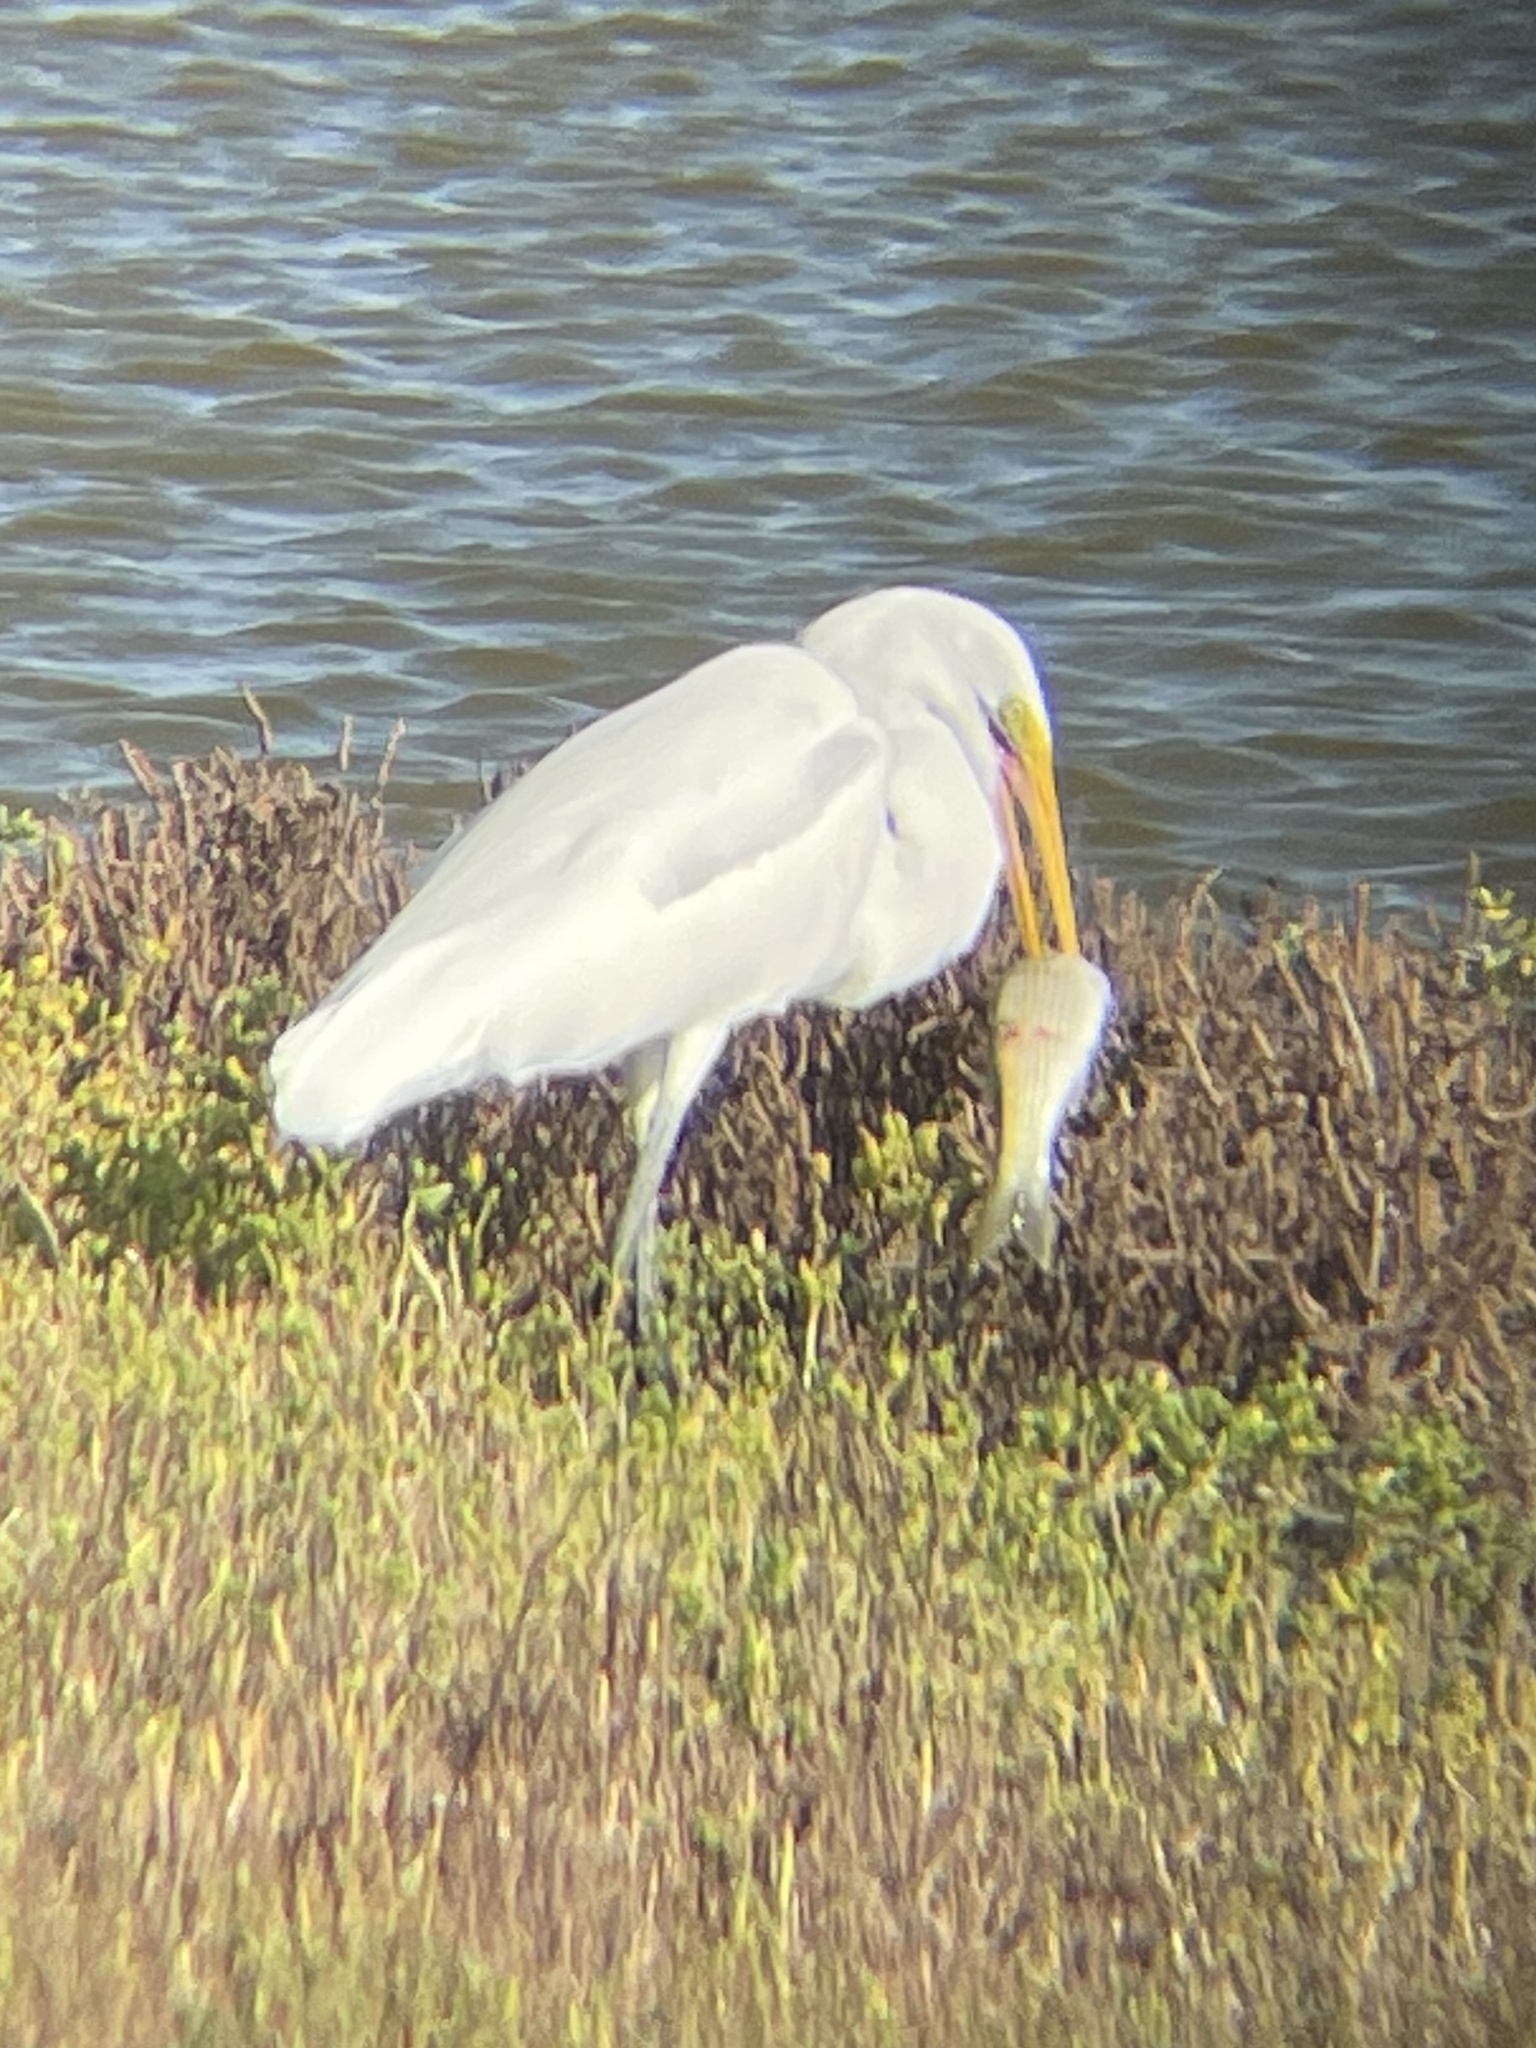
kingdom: Animalia
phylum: Chordata
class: Aves
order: Pelecaniformes
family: Ardeidae
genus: Ardea
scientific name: Ardea alba
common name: Great egret
